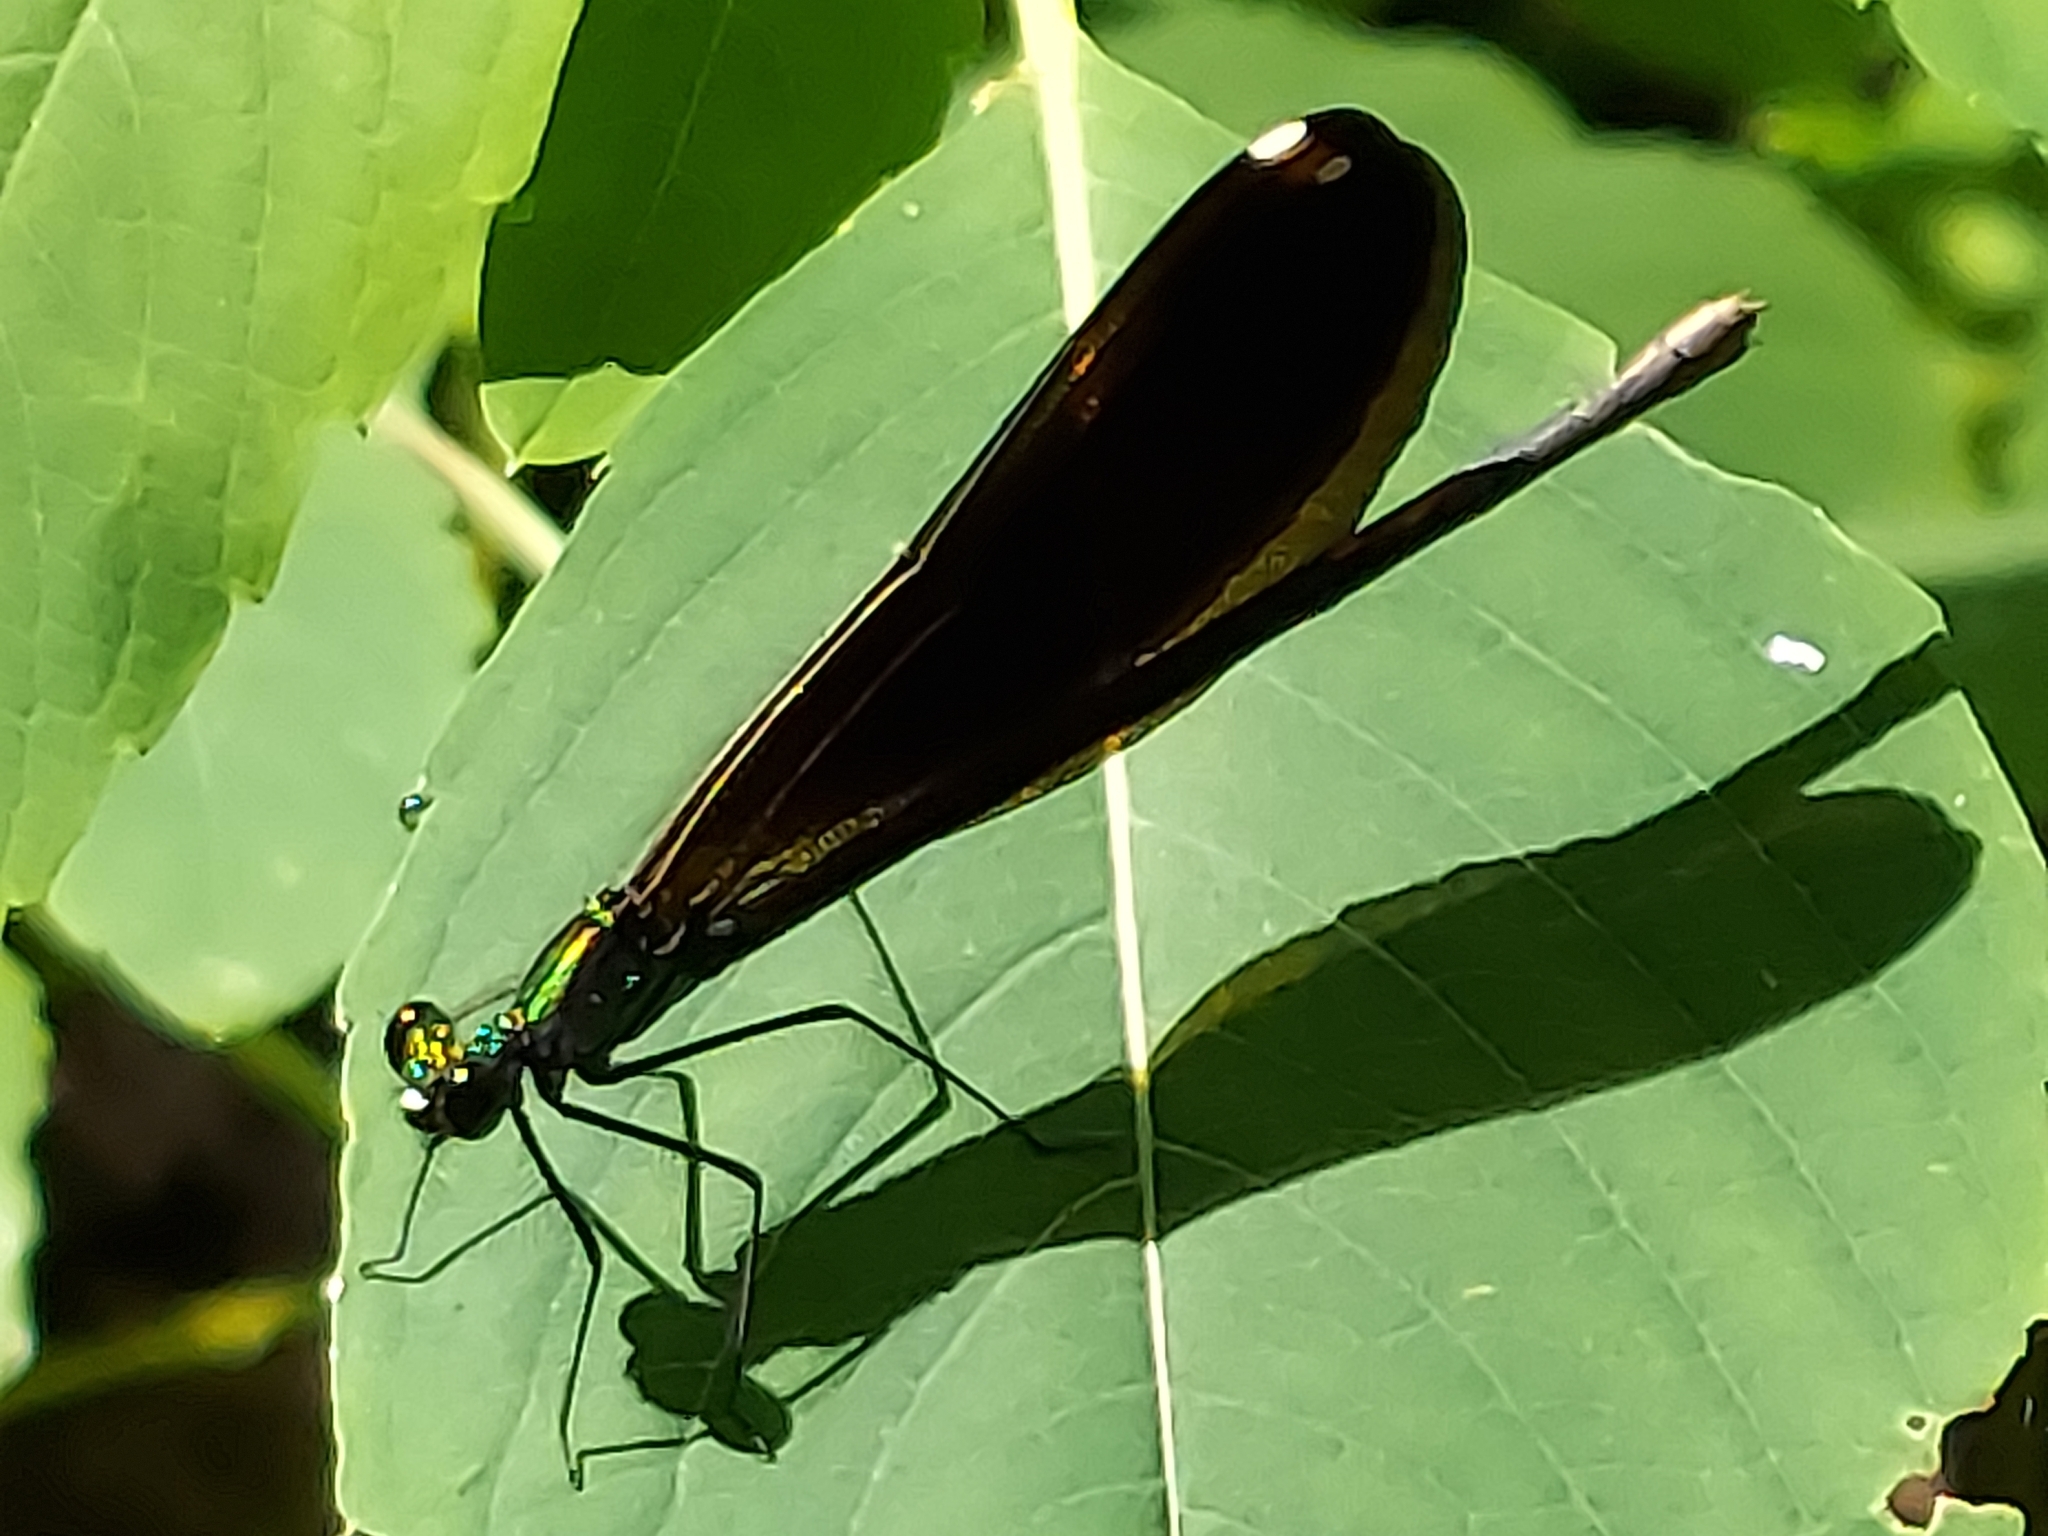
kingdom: Animalia
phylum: Arthropoda
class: Insecta
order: Odonata
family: Calopterygidae
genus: Calopteryx
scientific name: Calopteryx maculata
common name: Ebony jewelwing
